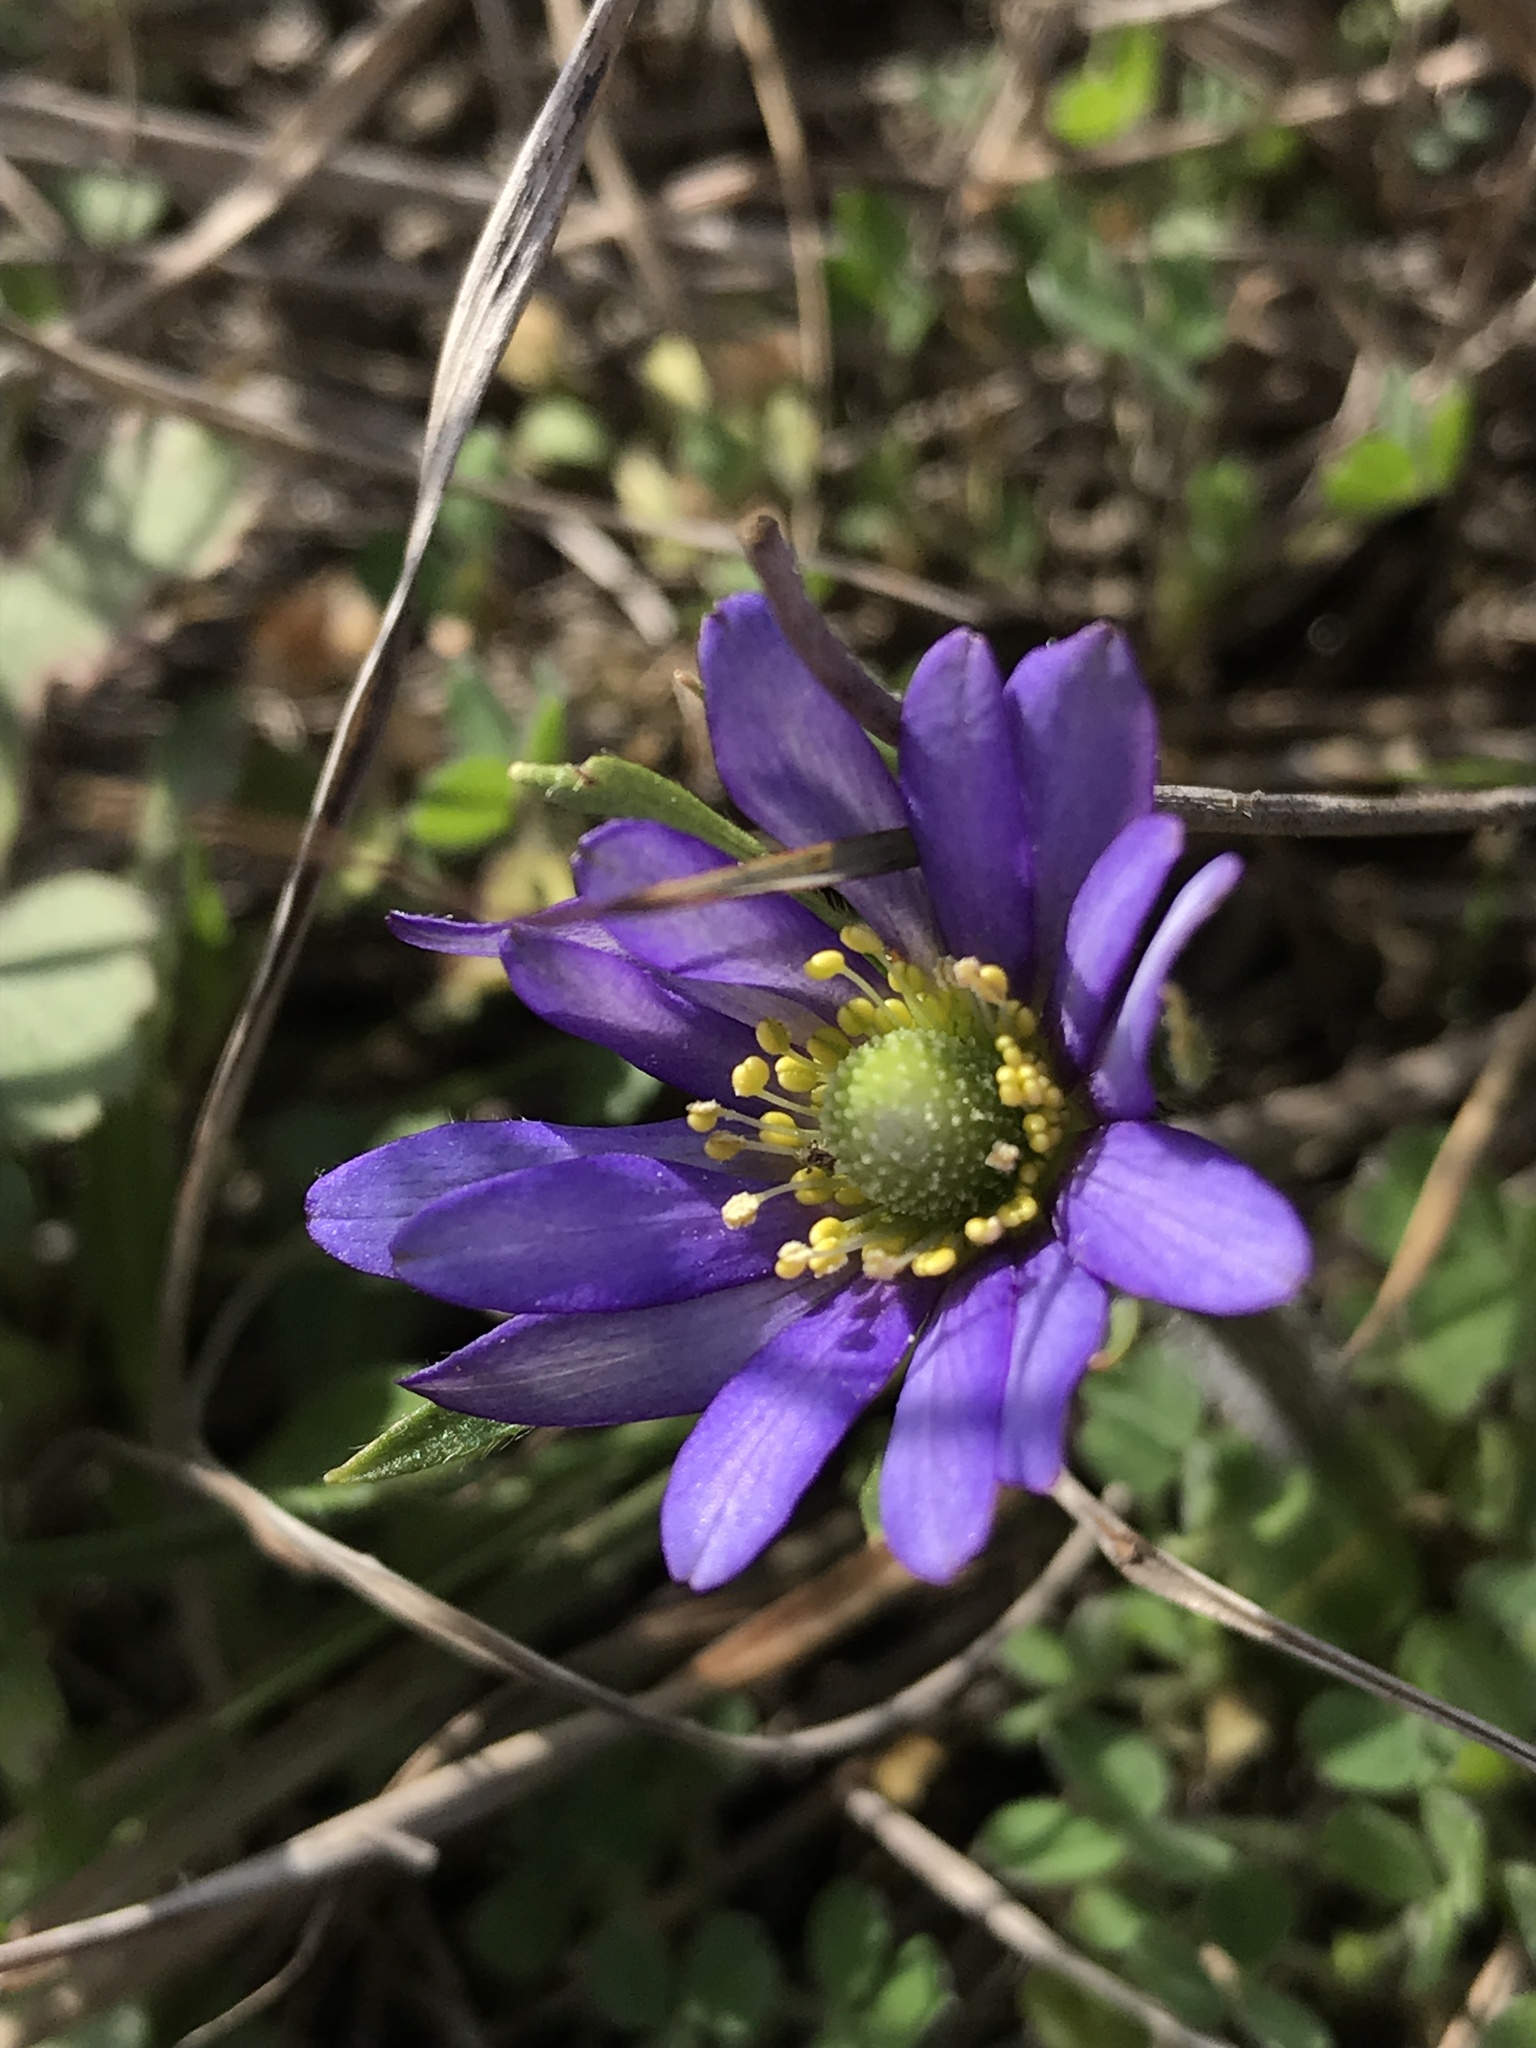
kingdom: Plantae
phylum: Tracheophyta
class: Magnoliopsida
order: Ranunculales
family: Ranunculaceae
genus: Anemone
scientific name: Anemone berlandieri
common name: Ten-petal anemone
